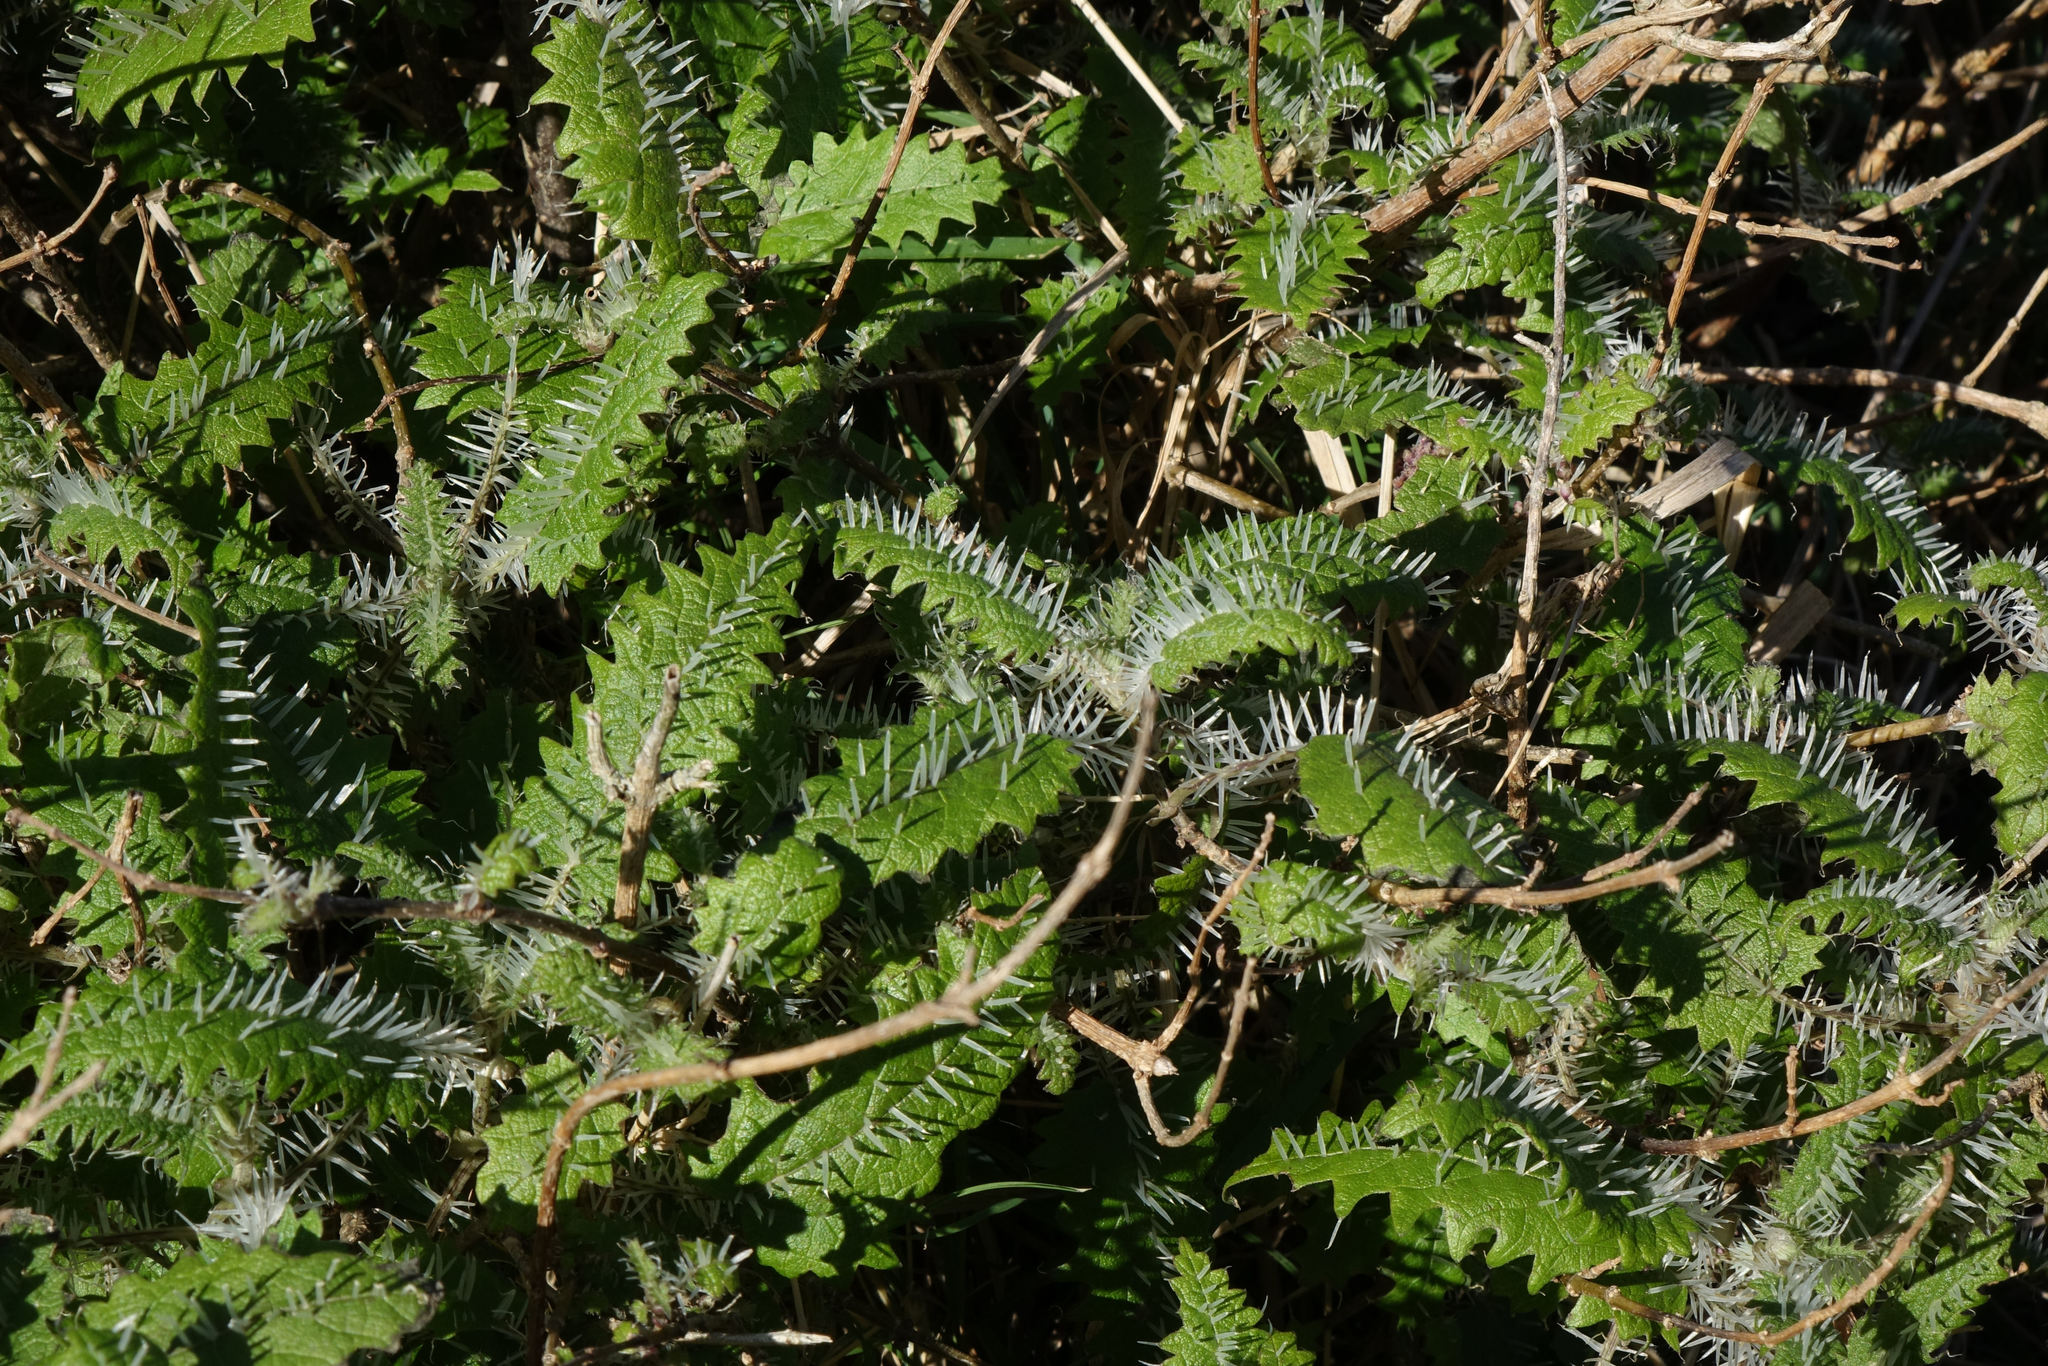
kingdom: Plantae
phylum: Tracheophyta
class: Magnoliopsida
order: Rosales
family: Urticaceae
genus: Urtica
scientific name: Urtica ferox
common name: Tree nettle
